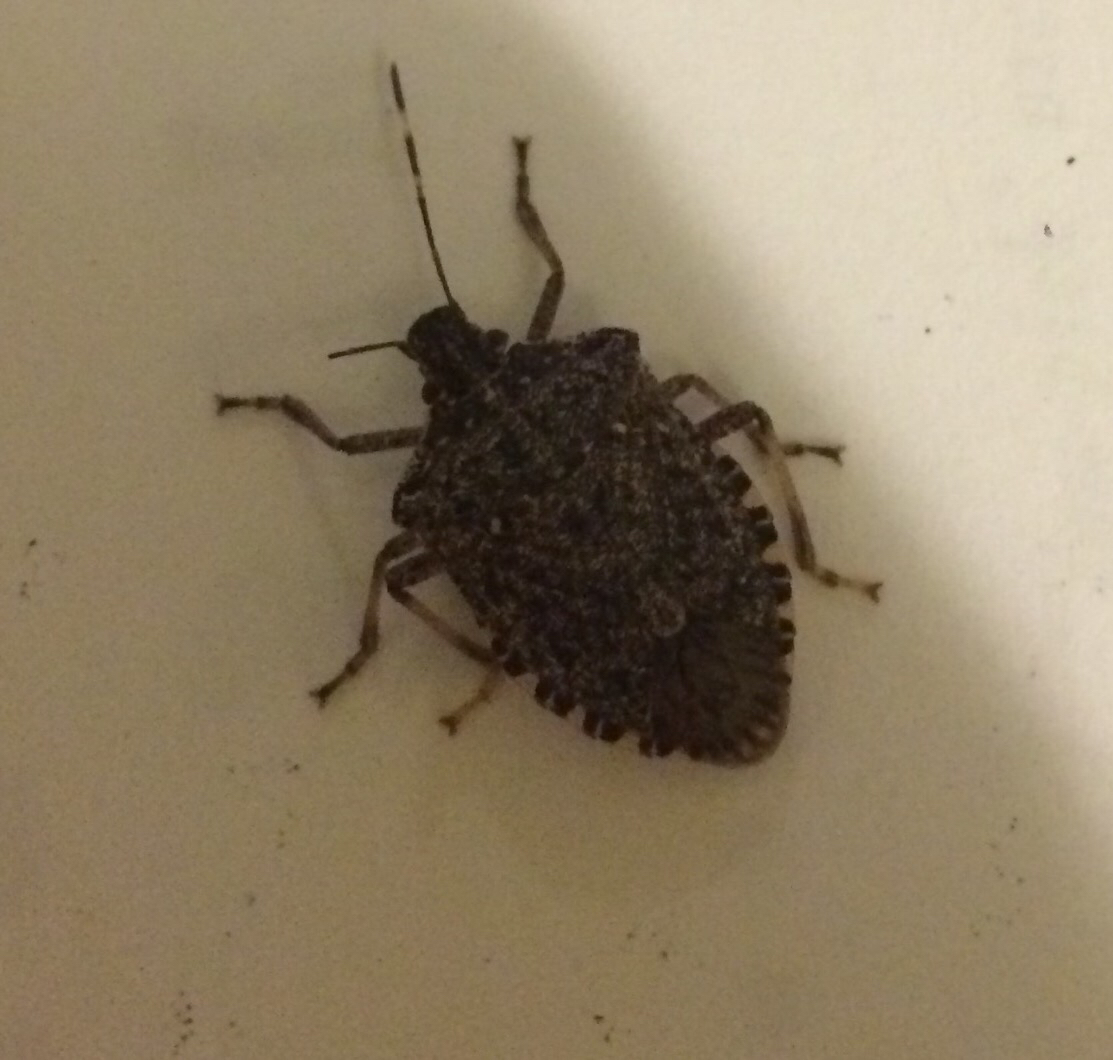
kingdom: Animalia
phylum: Arthropoda
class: Insecta
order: Hemiptera
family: Pentatomidae
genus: Halyomorpha
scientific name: Halyomorpha halys
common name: Brown marmorated stink bug
